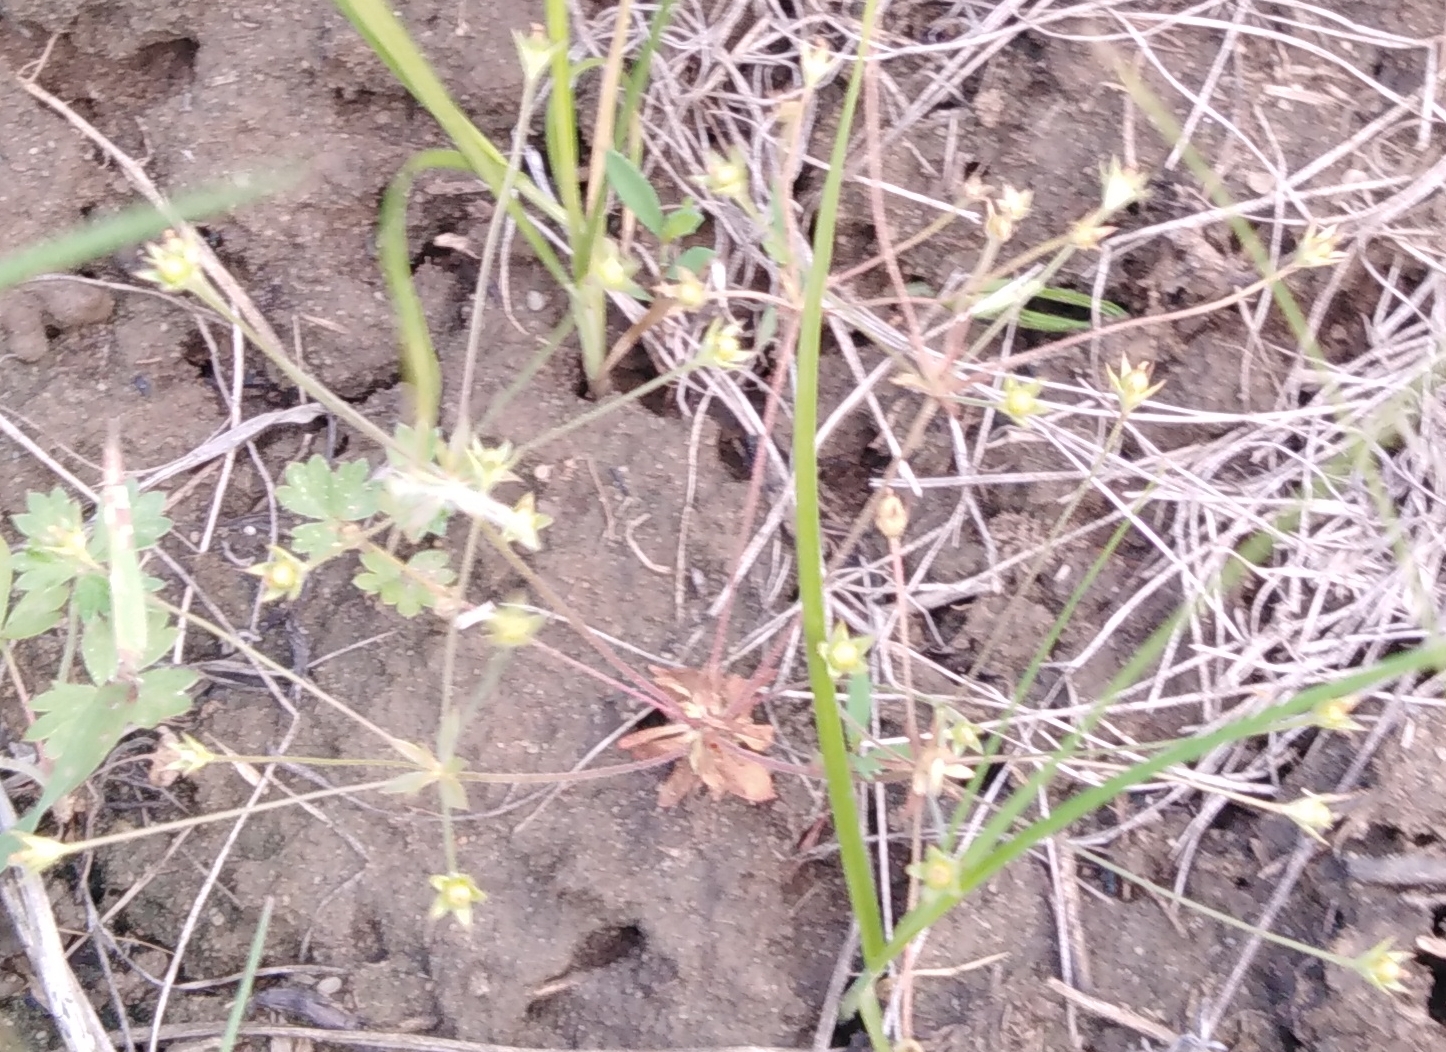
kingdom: Plantae
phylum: Tracheophyta
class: Magnoliopsida
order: Ericales
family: Primulaceae
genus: Androsace
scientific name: Androsace elongata
